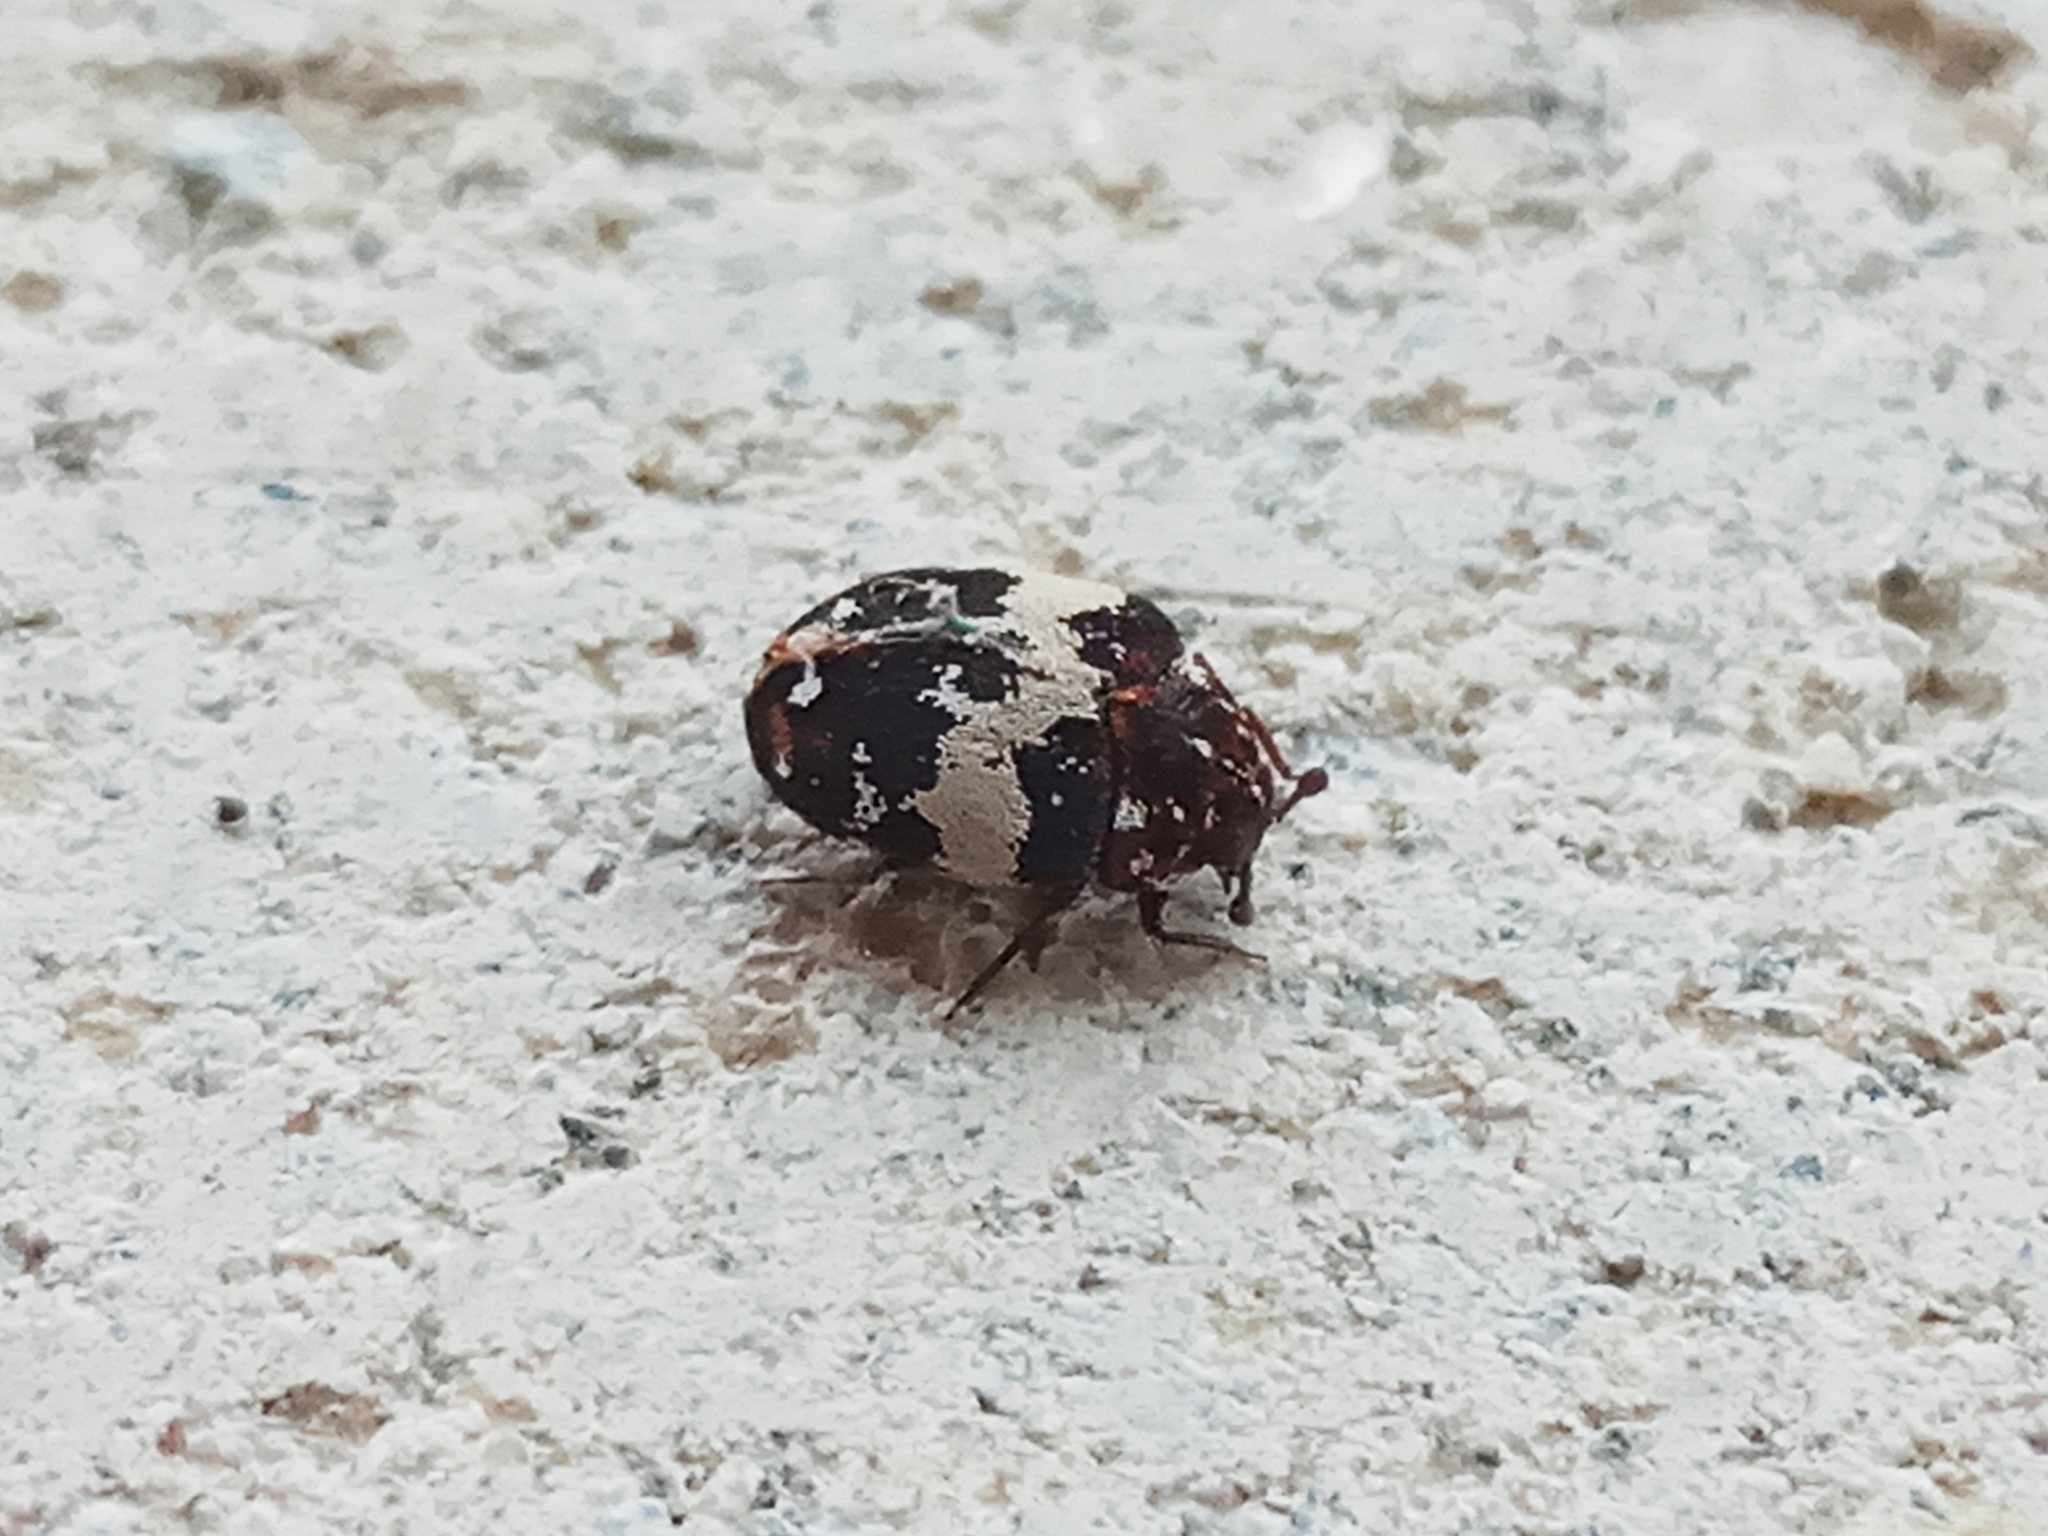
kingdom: Animalia
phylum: Arthropoda
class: Insecta
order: Coleoptera
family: Dermestidae
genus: Anthrenus
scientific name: Anthrenus pimpinellae
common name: Dermestid beetle
